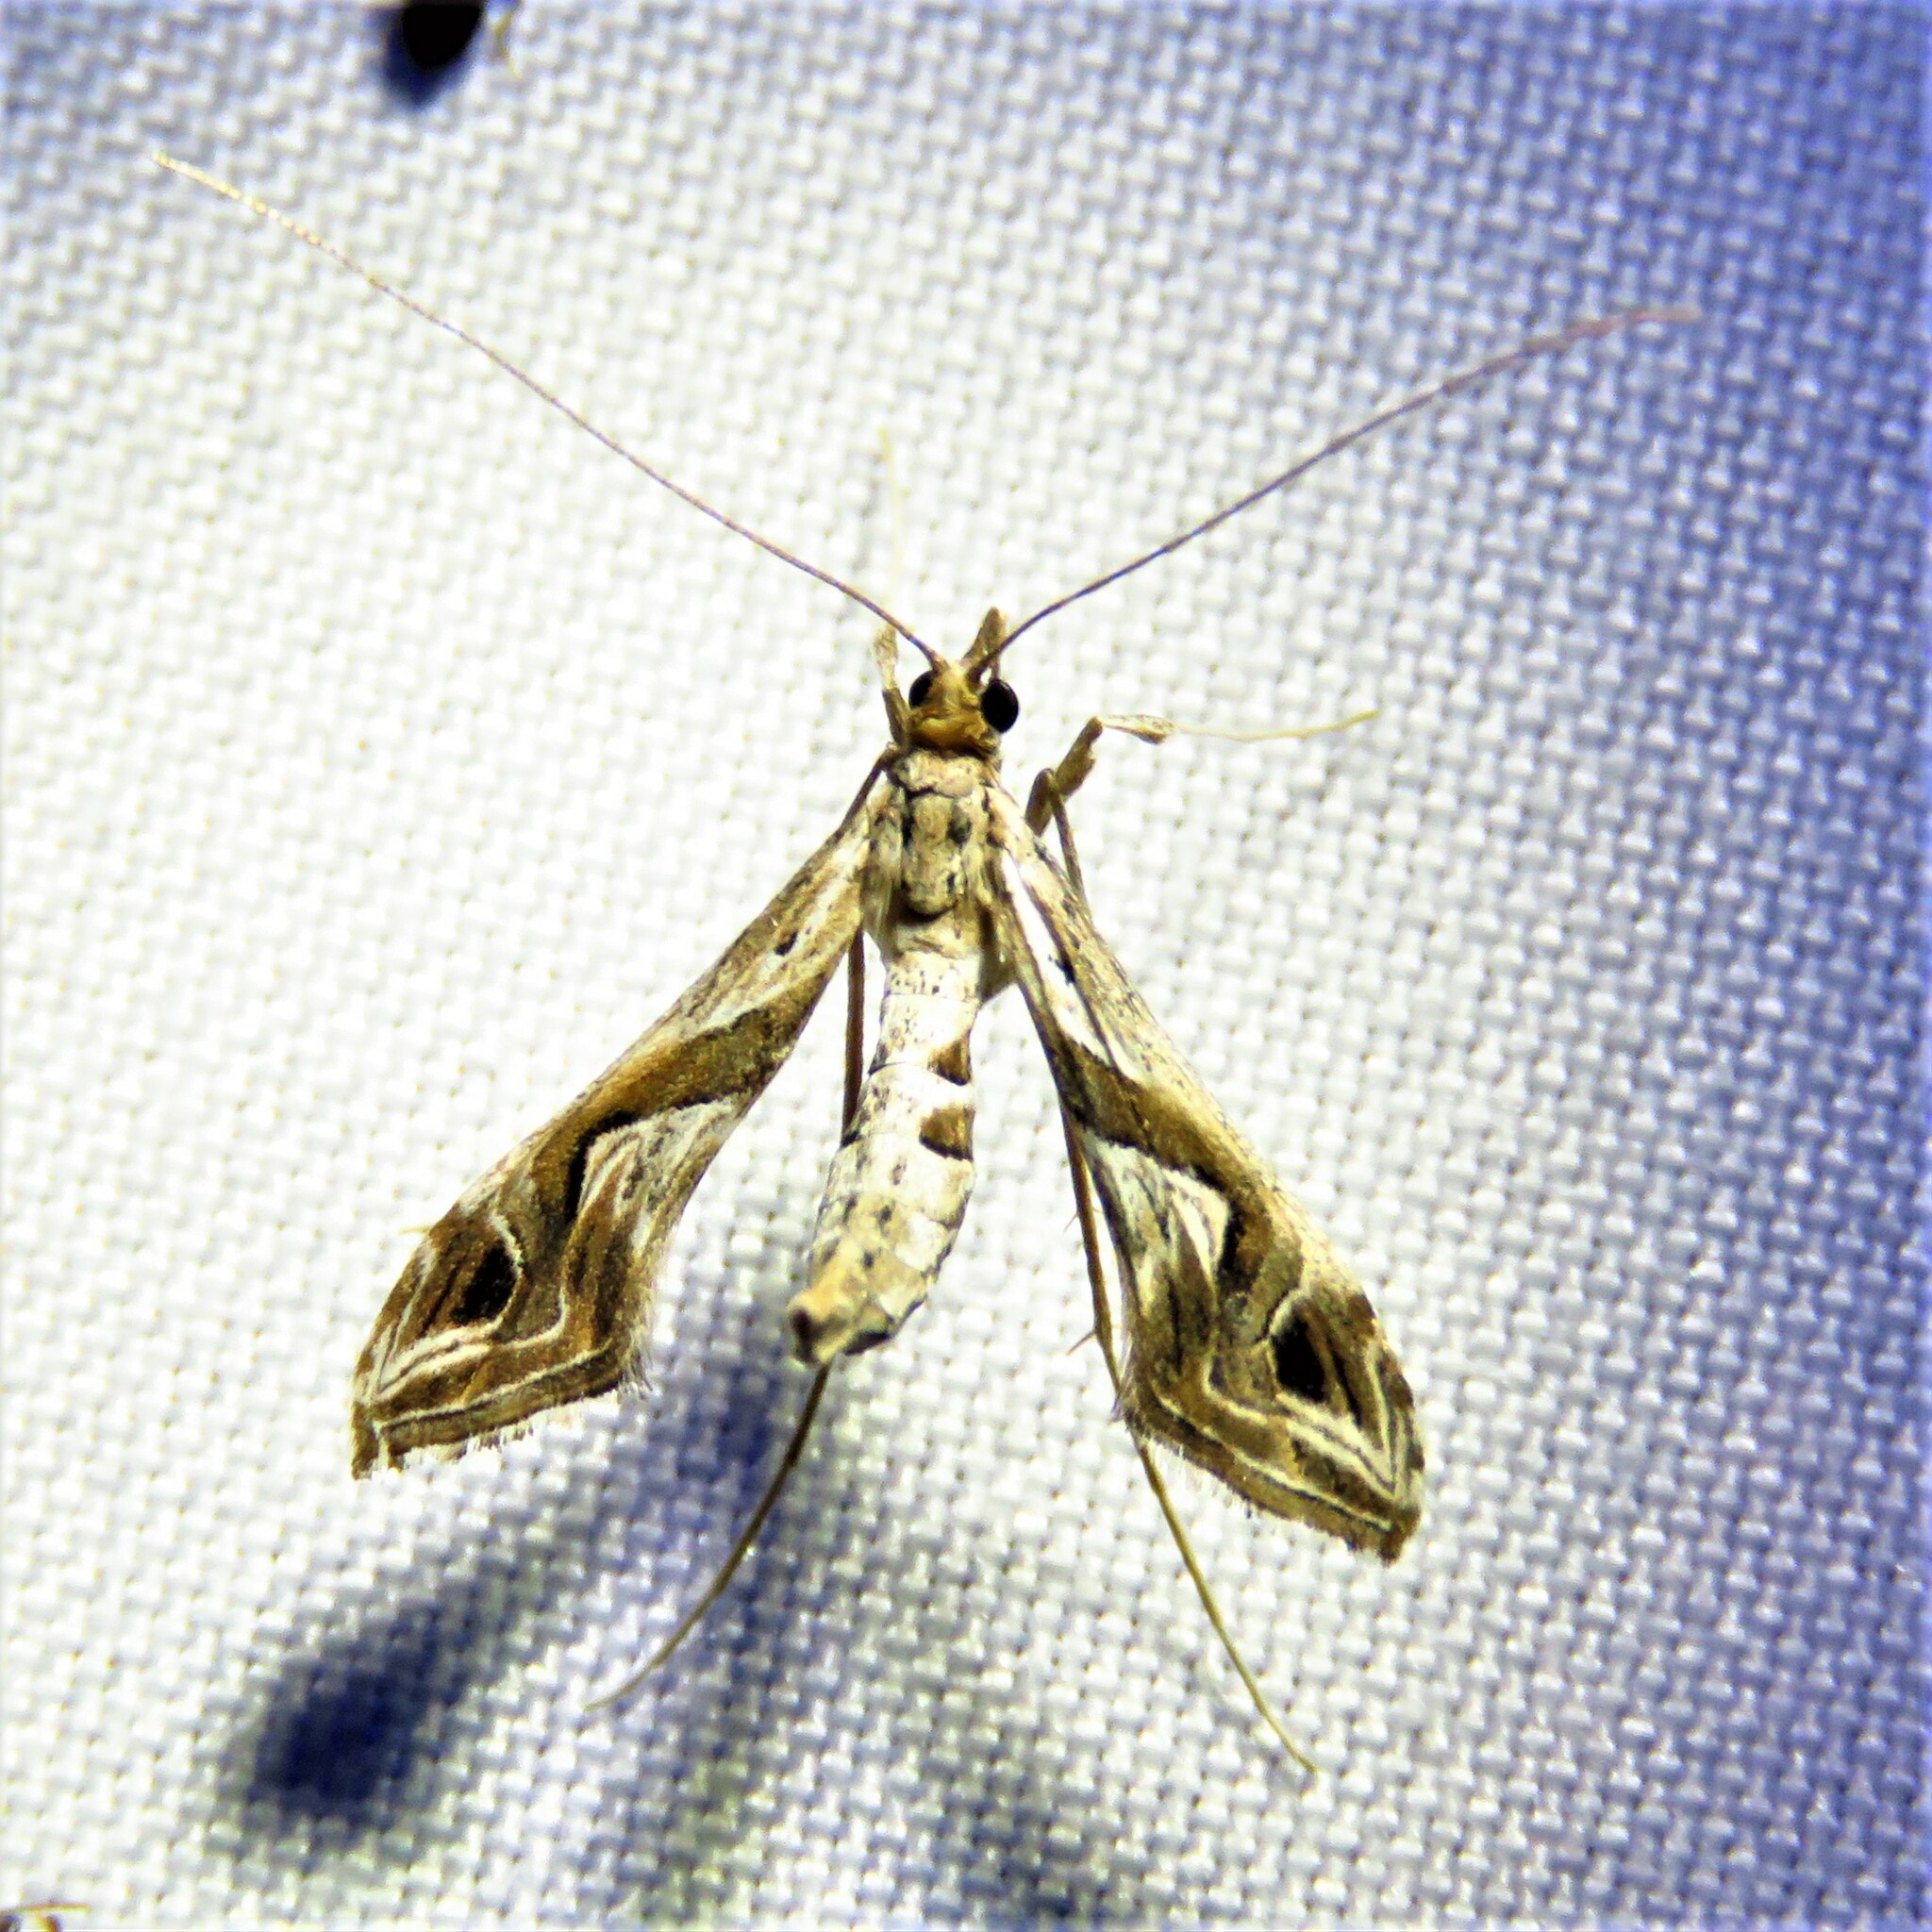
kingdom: Animalia
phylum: Arthropoda
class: Insecta
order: Lepidoptera
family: Crambidae
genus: Lineodes
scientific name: Lineodes integra
